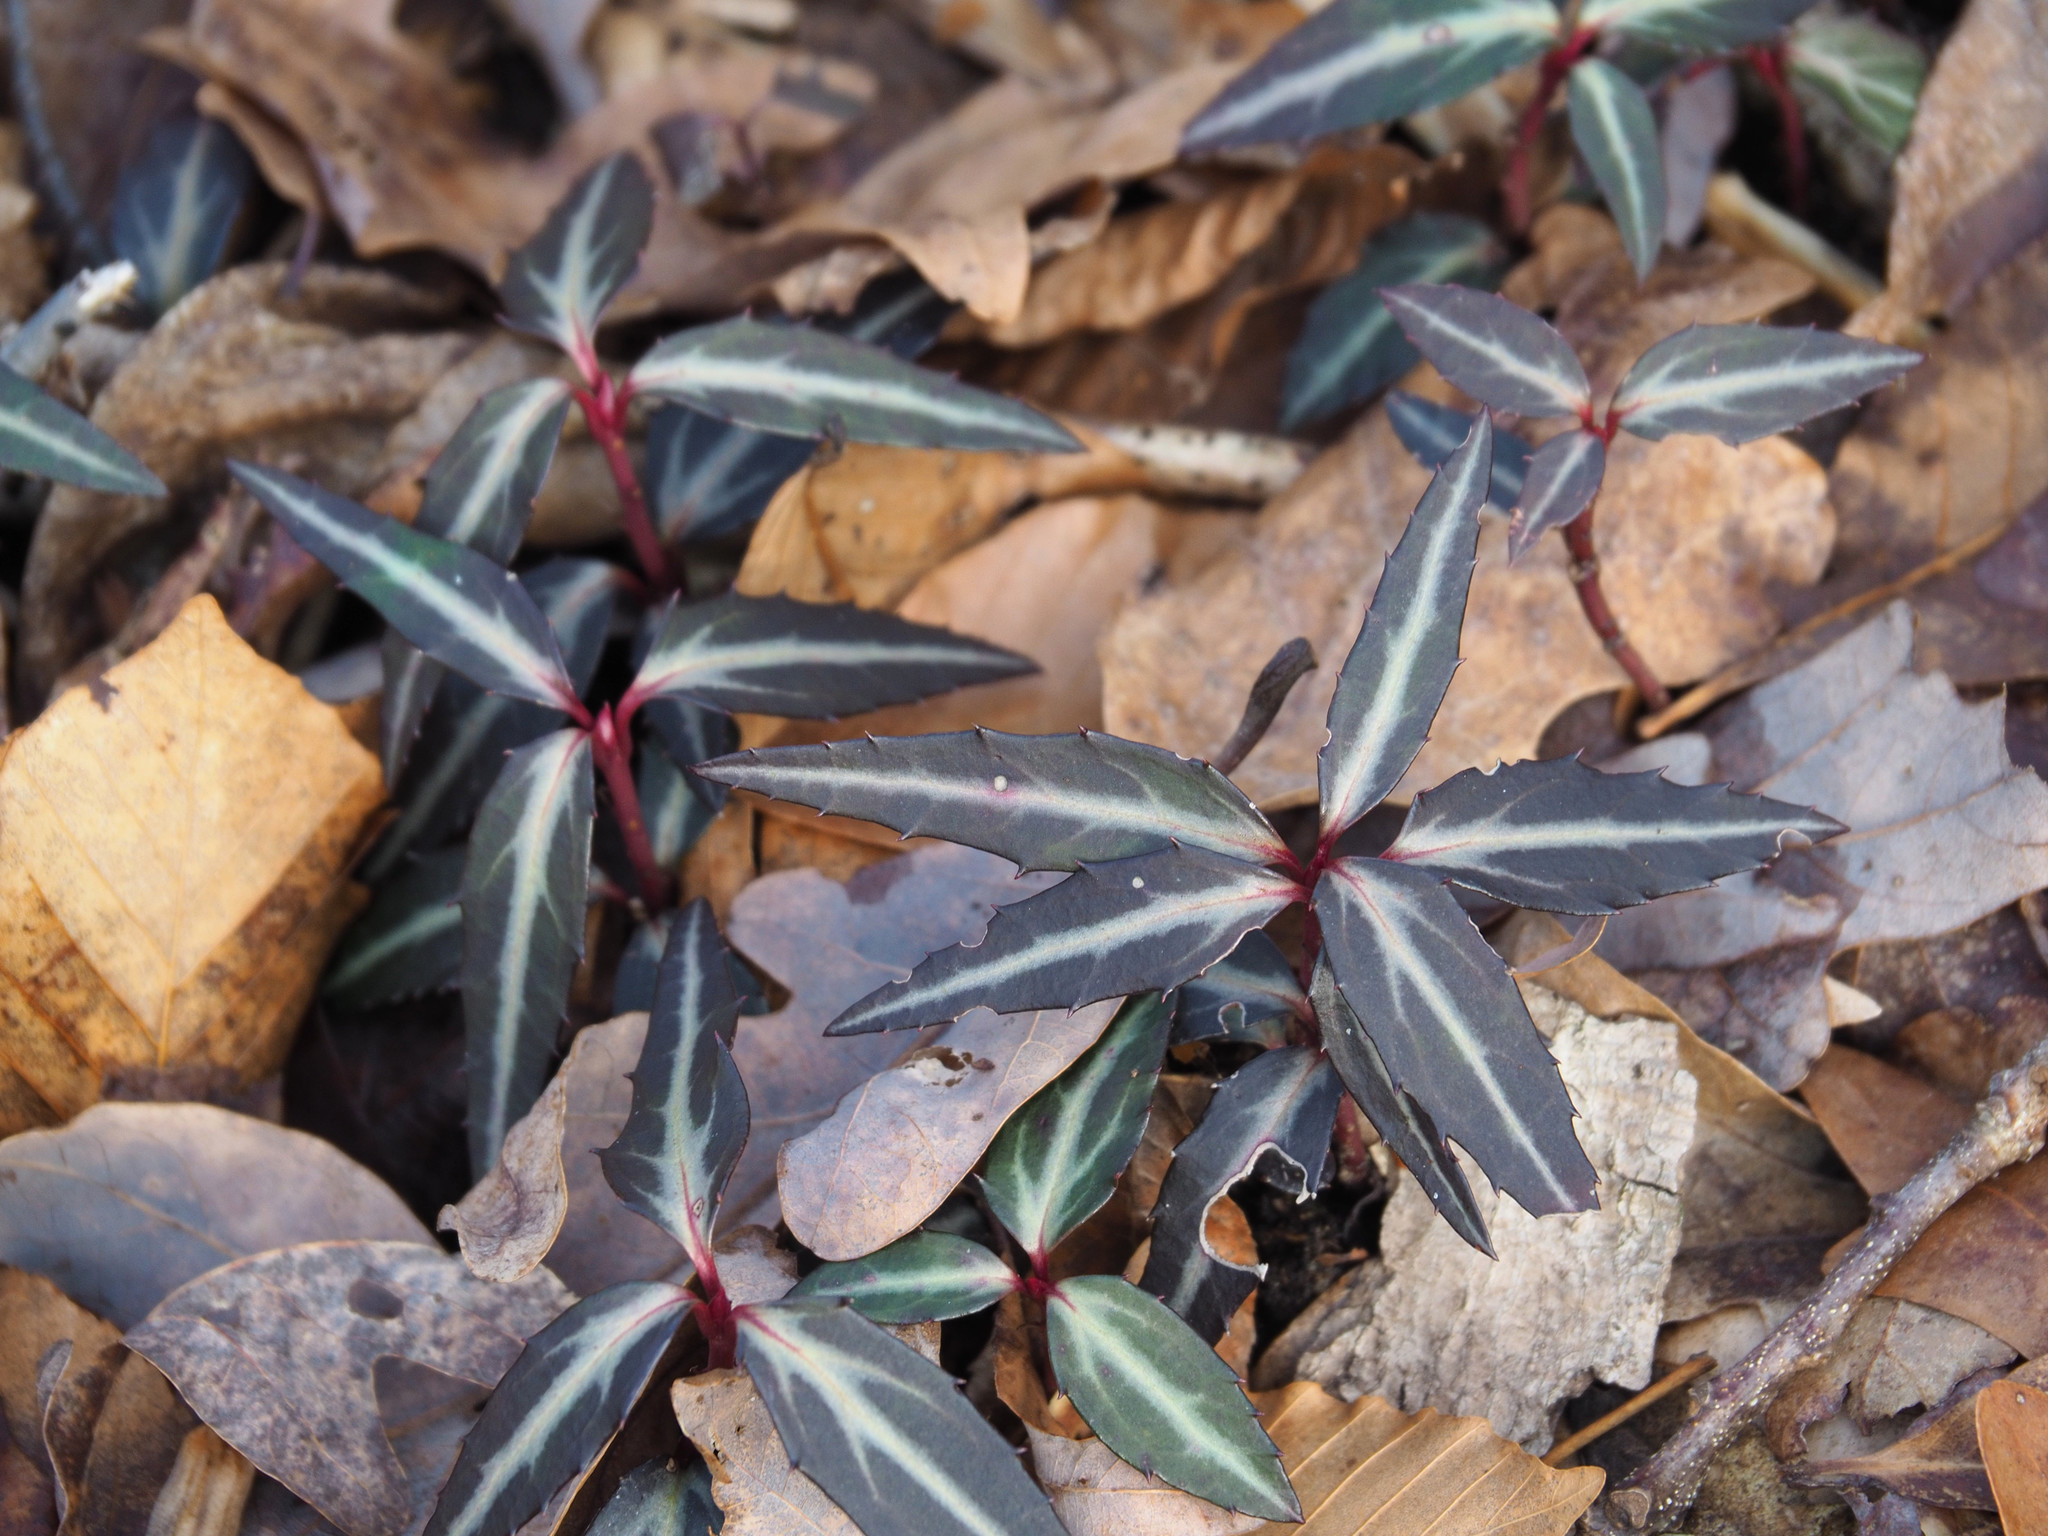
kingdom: Plantae
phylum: Tracheophyta
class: Magnoliopsida
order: Ericales
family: Ericaceae
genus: Chimaphila
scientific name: Chimaphila maculata
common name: Spotted pipsissewa
